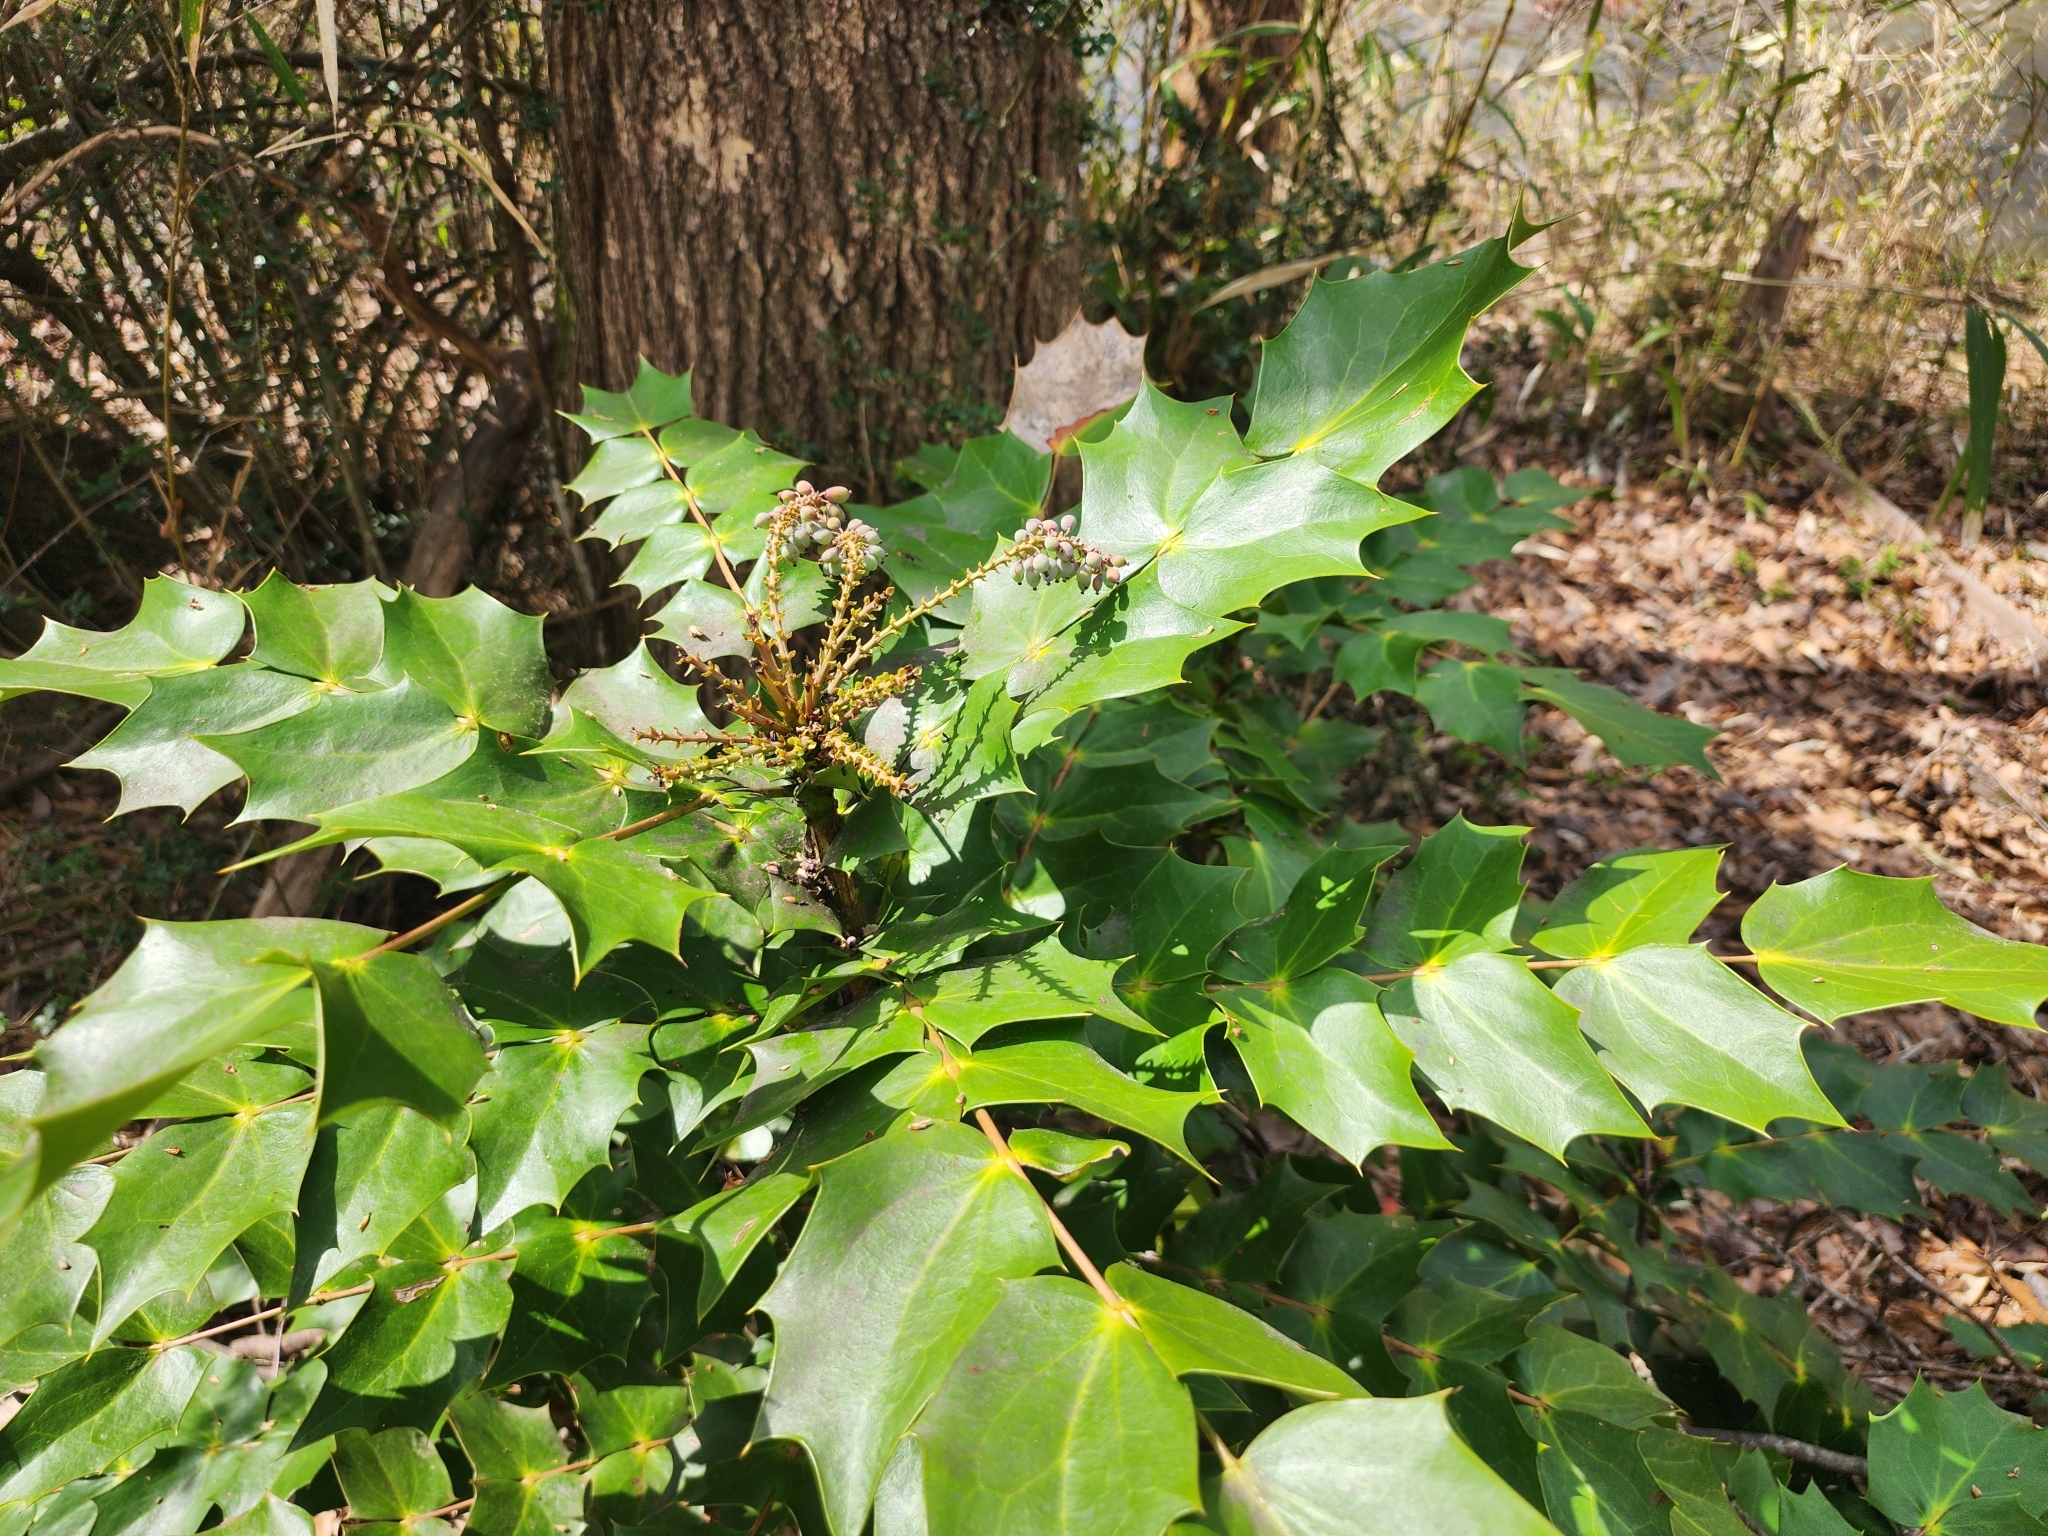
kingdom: Plantae
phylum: Tracheophyta
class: Magnoliopsida
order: Ranunculales
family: Berberidaceae
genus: Mahonia
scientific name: Mahonia bealei
